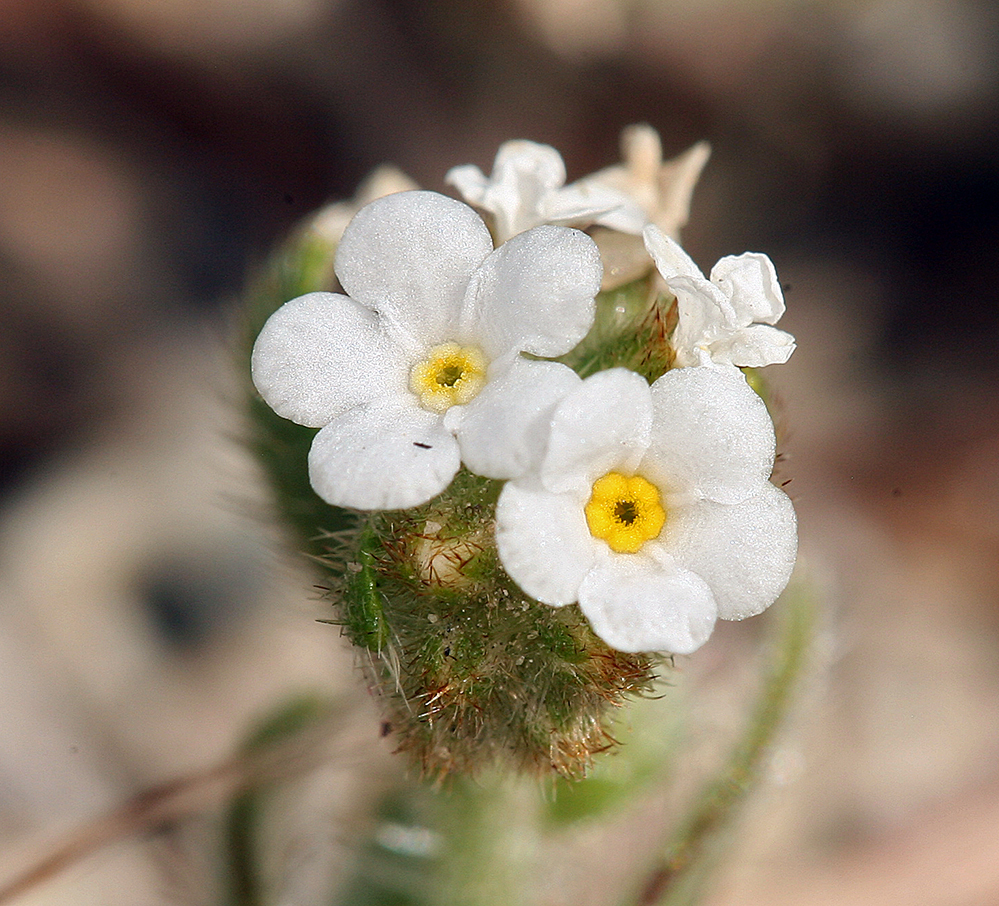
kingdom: Plantae
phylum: Tracheophyta
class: Magnoliopsida
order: Boraginales
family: Boraginaceae
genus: Plagiobothrys
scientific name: Plagiobothrys arizonicus
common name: Arizona popcorn-flower
